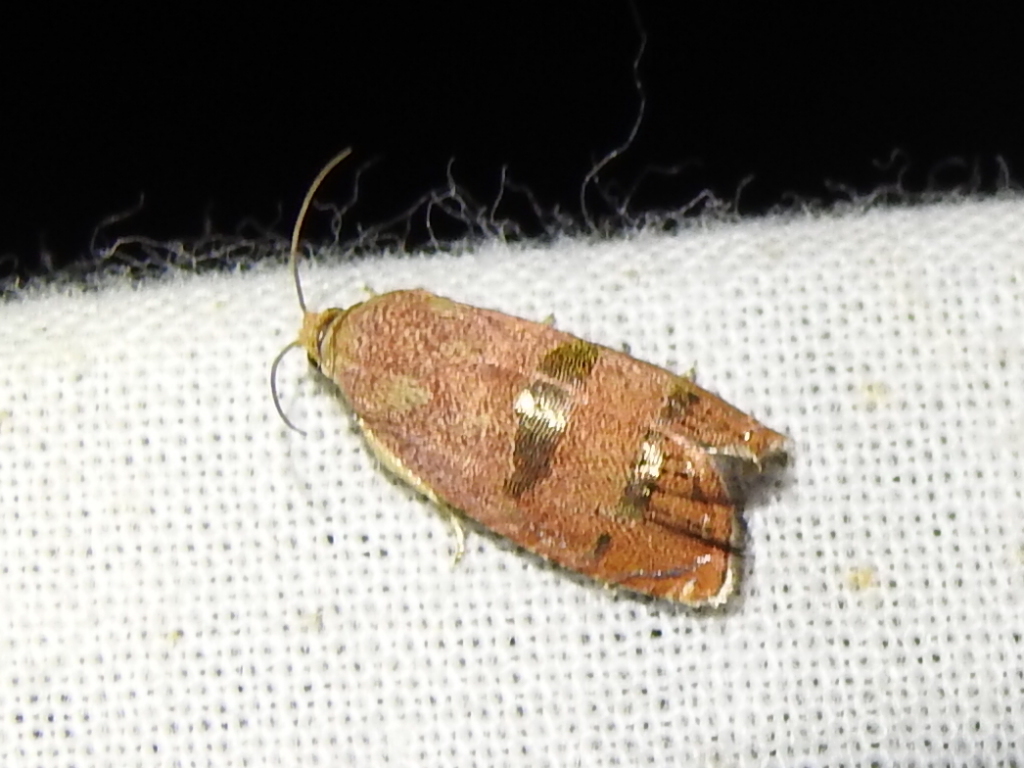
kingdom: Animalia
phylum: Arthropoda
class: Insecta
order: Lepidoptera
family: Tortricidae
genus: Cydia
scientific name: Cydia latiferreana
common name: Filbertworm moth
